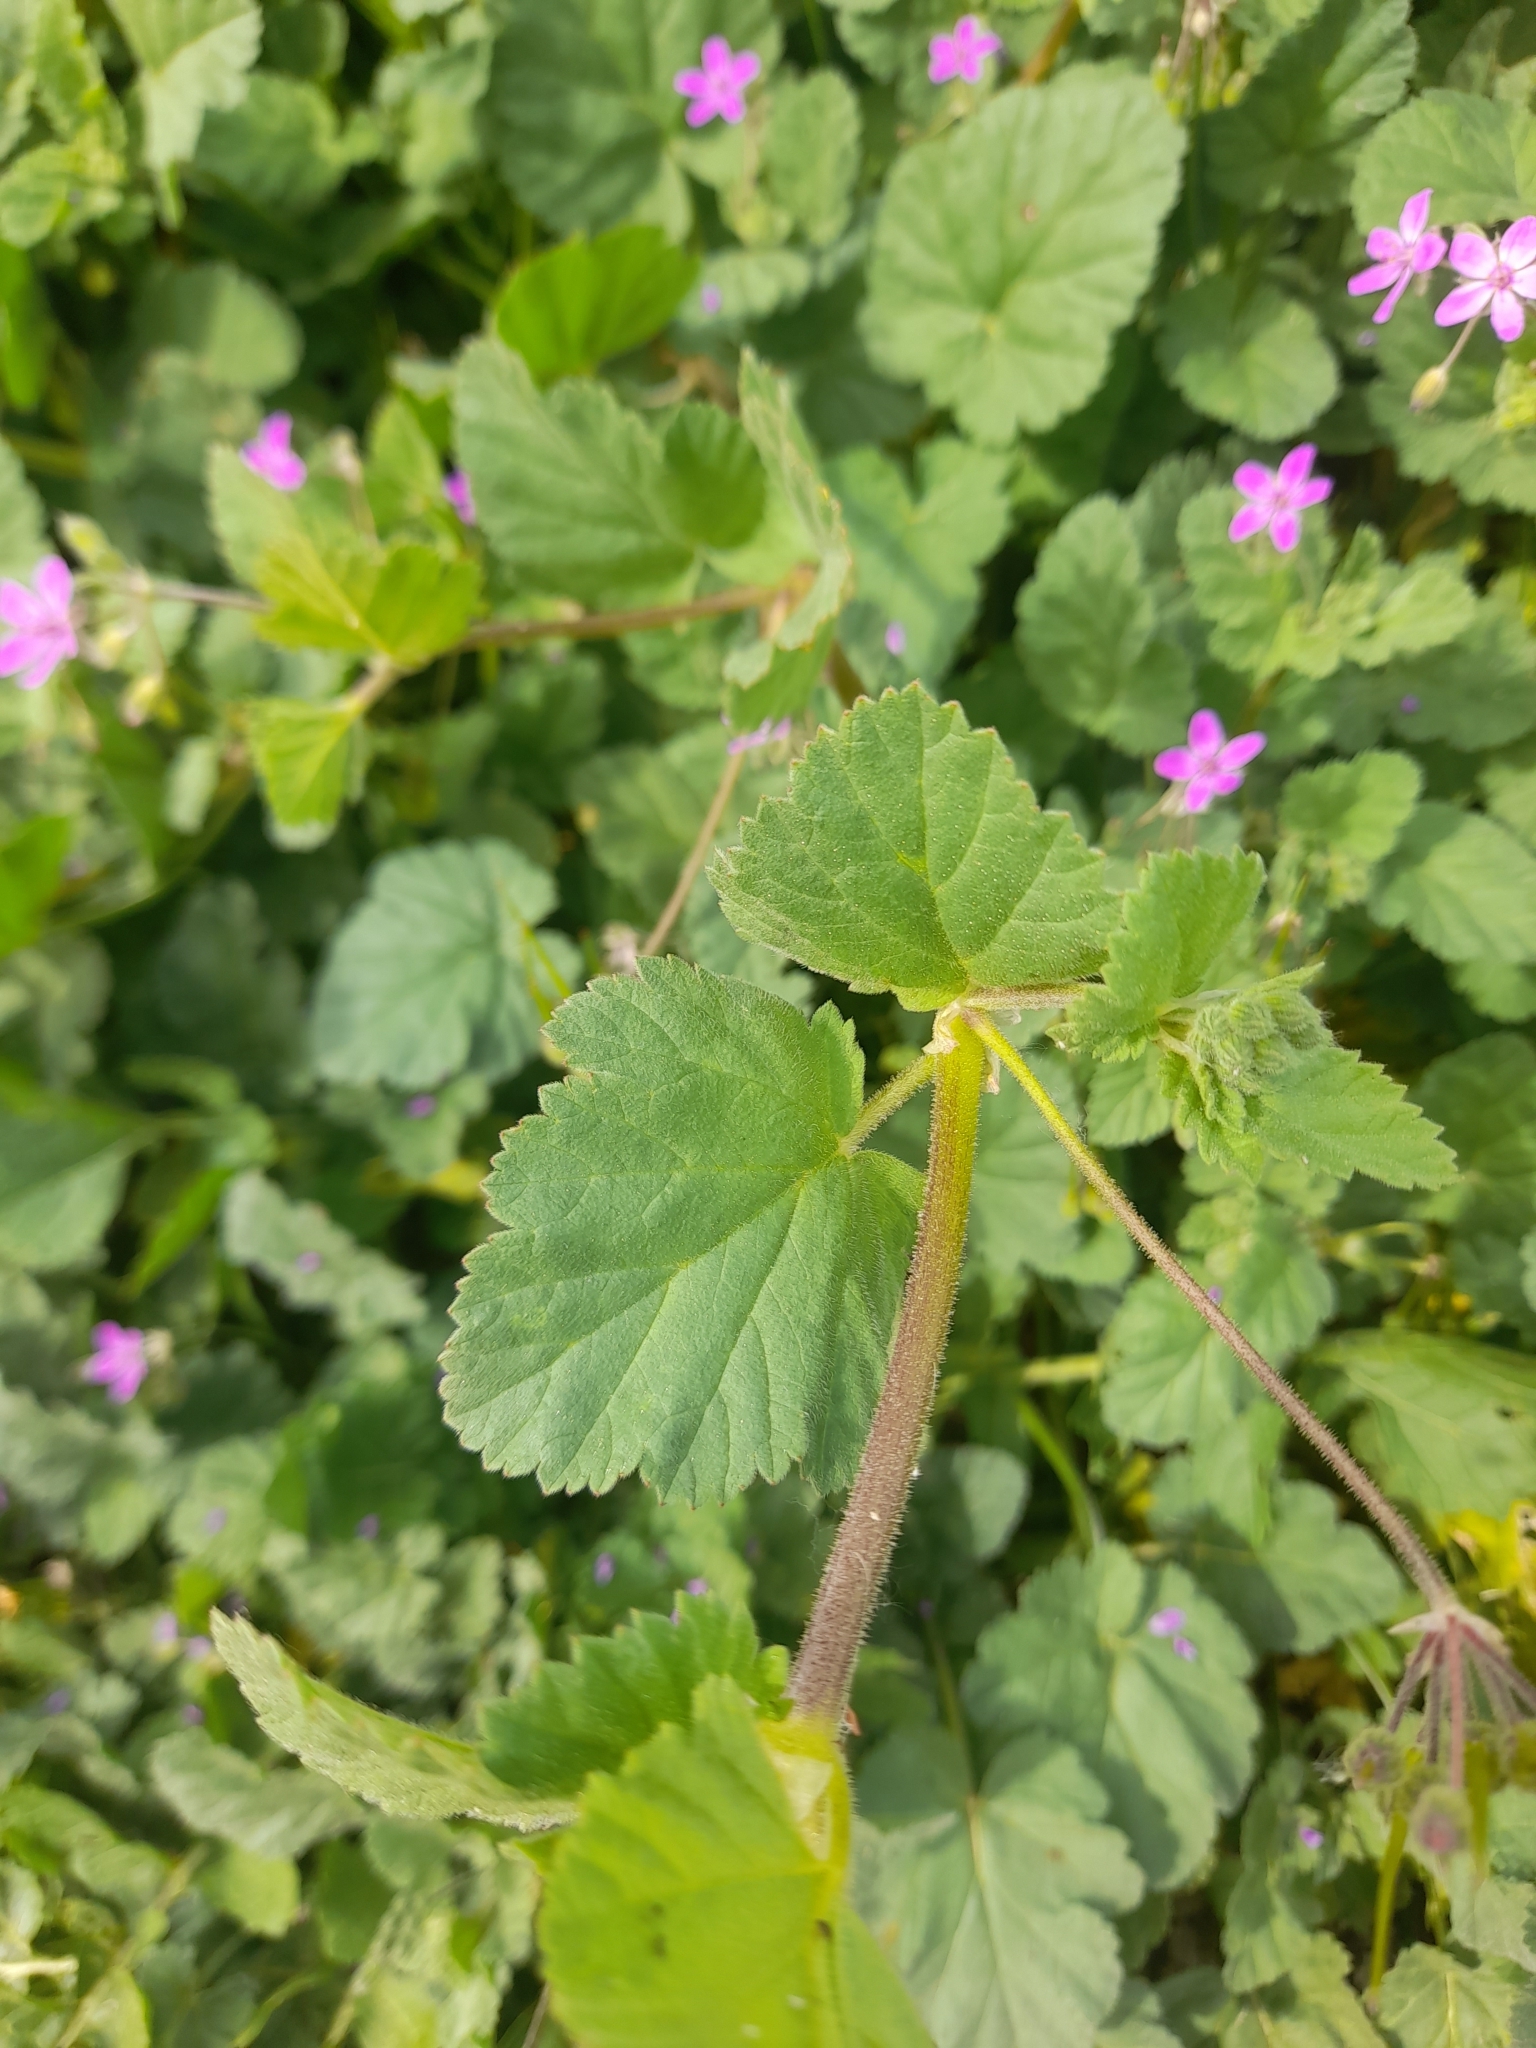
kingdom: Plantae
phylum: Tracheophyta
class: Magnoliopsida
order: Geraniales
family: Geraniaceae
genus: Erodium
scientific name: Erodium malacoides
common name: Soft stork's-bill
